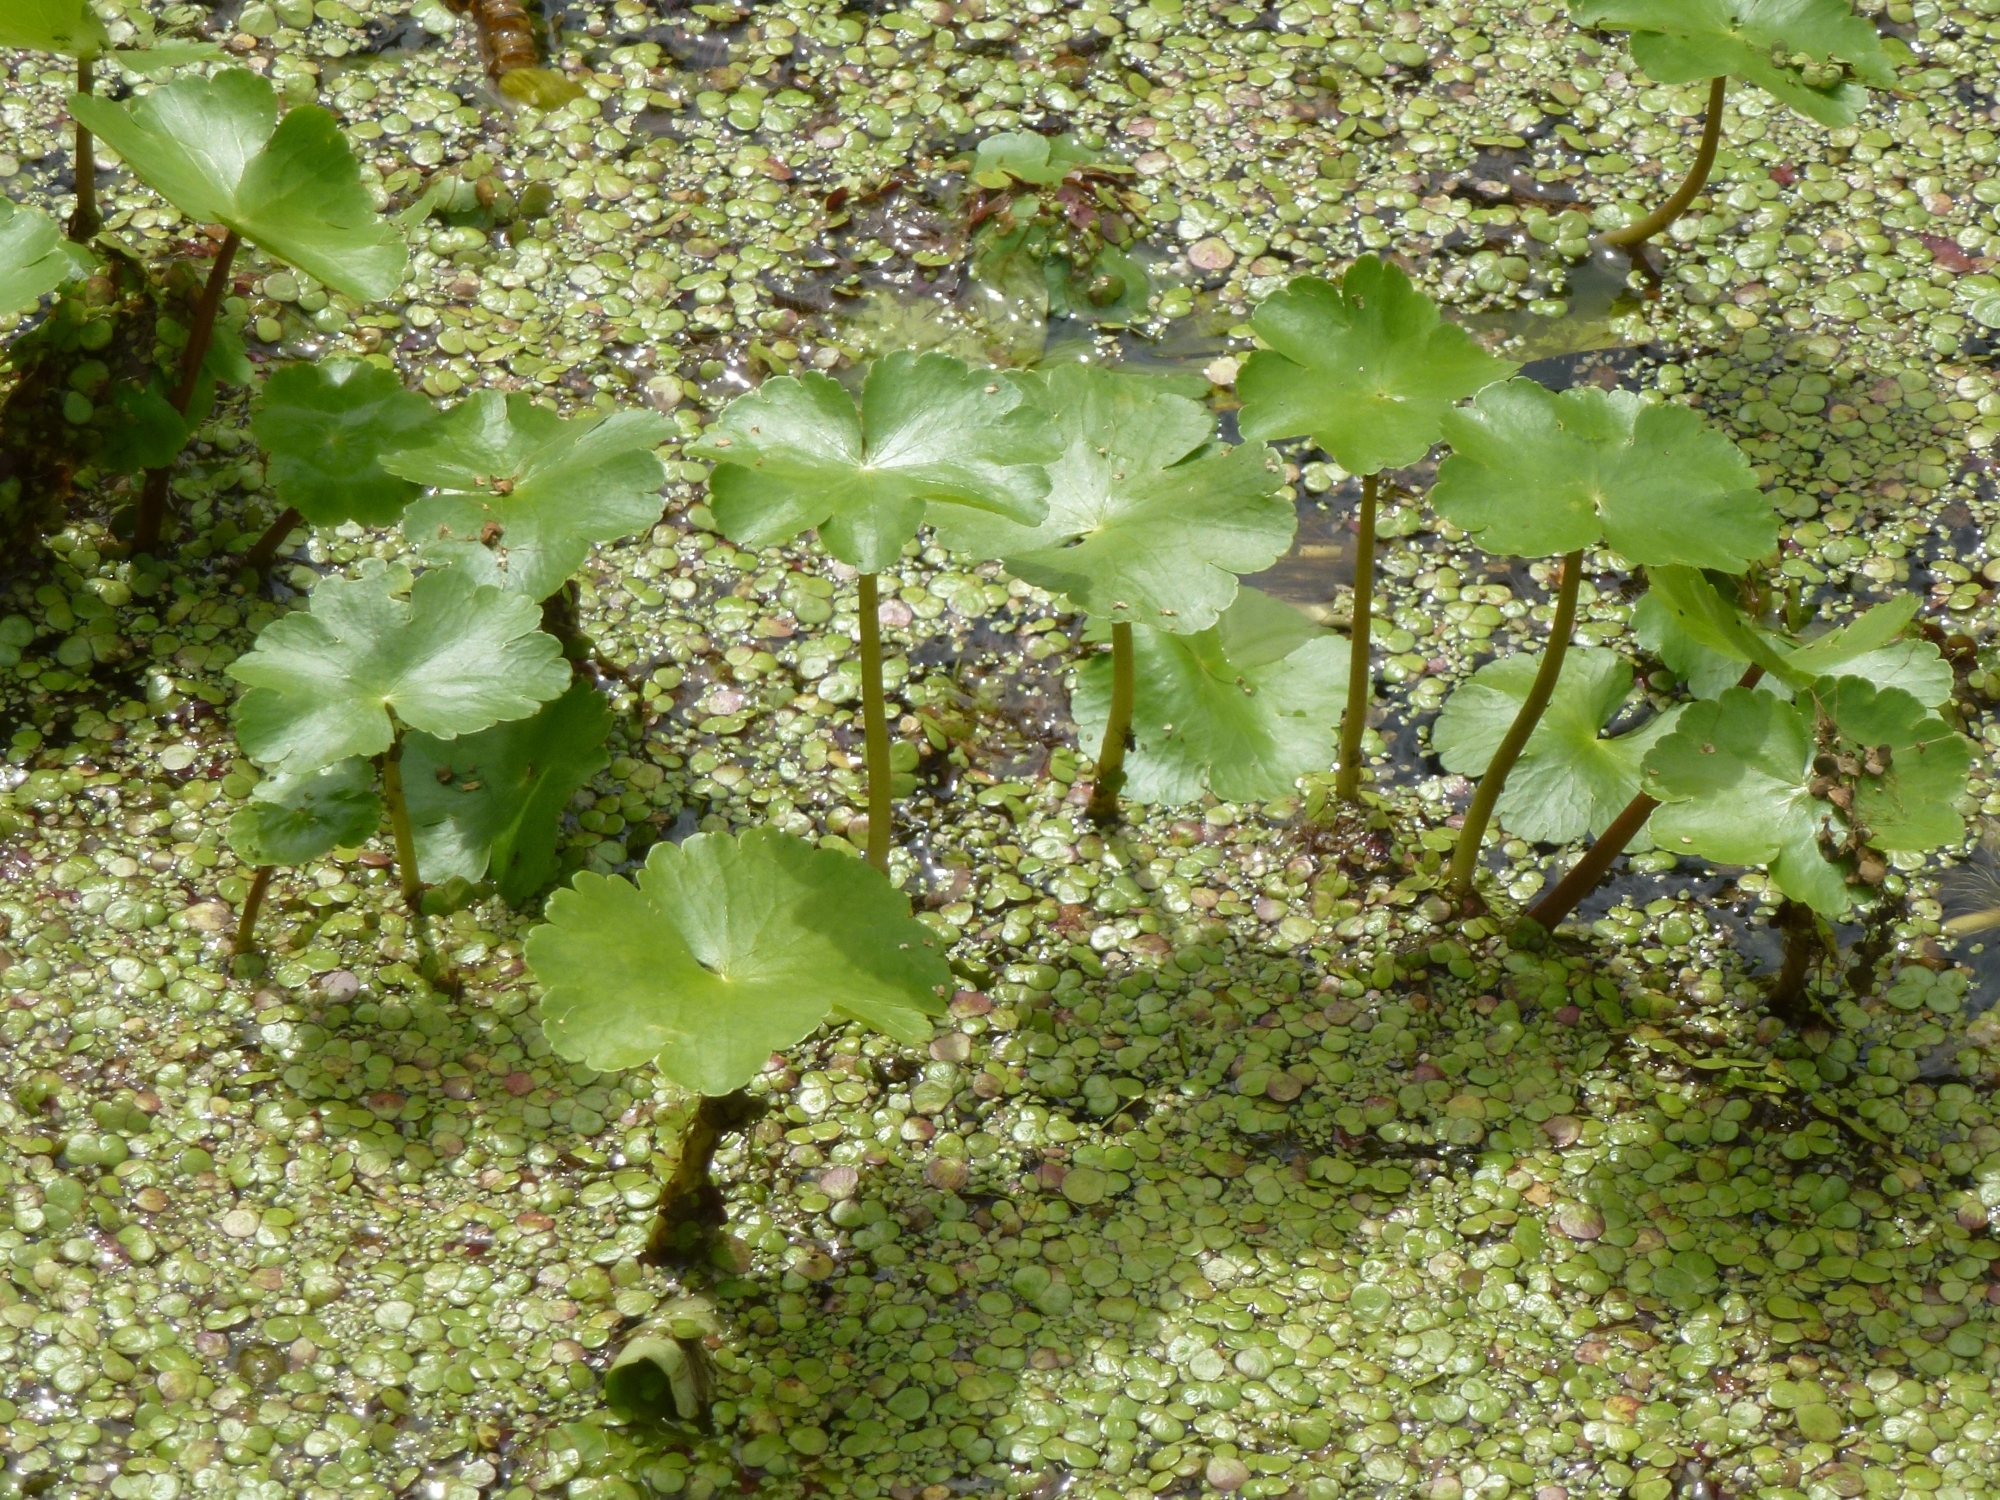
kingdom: Plantae
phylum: Tracheophyta
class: Magnoliopsida
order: Apiales
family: Araliaceae
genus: Hydrocotyle
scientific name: Hydrocotyle ranunculoides
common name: Floating pennywort
